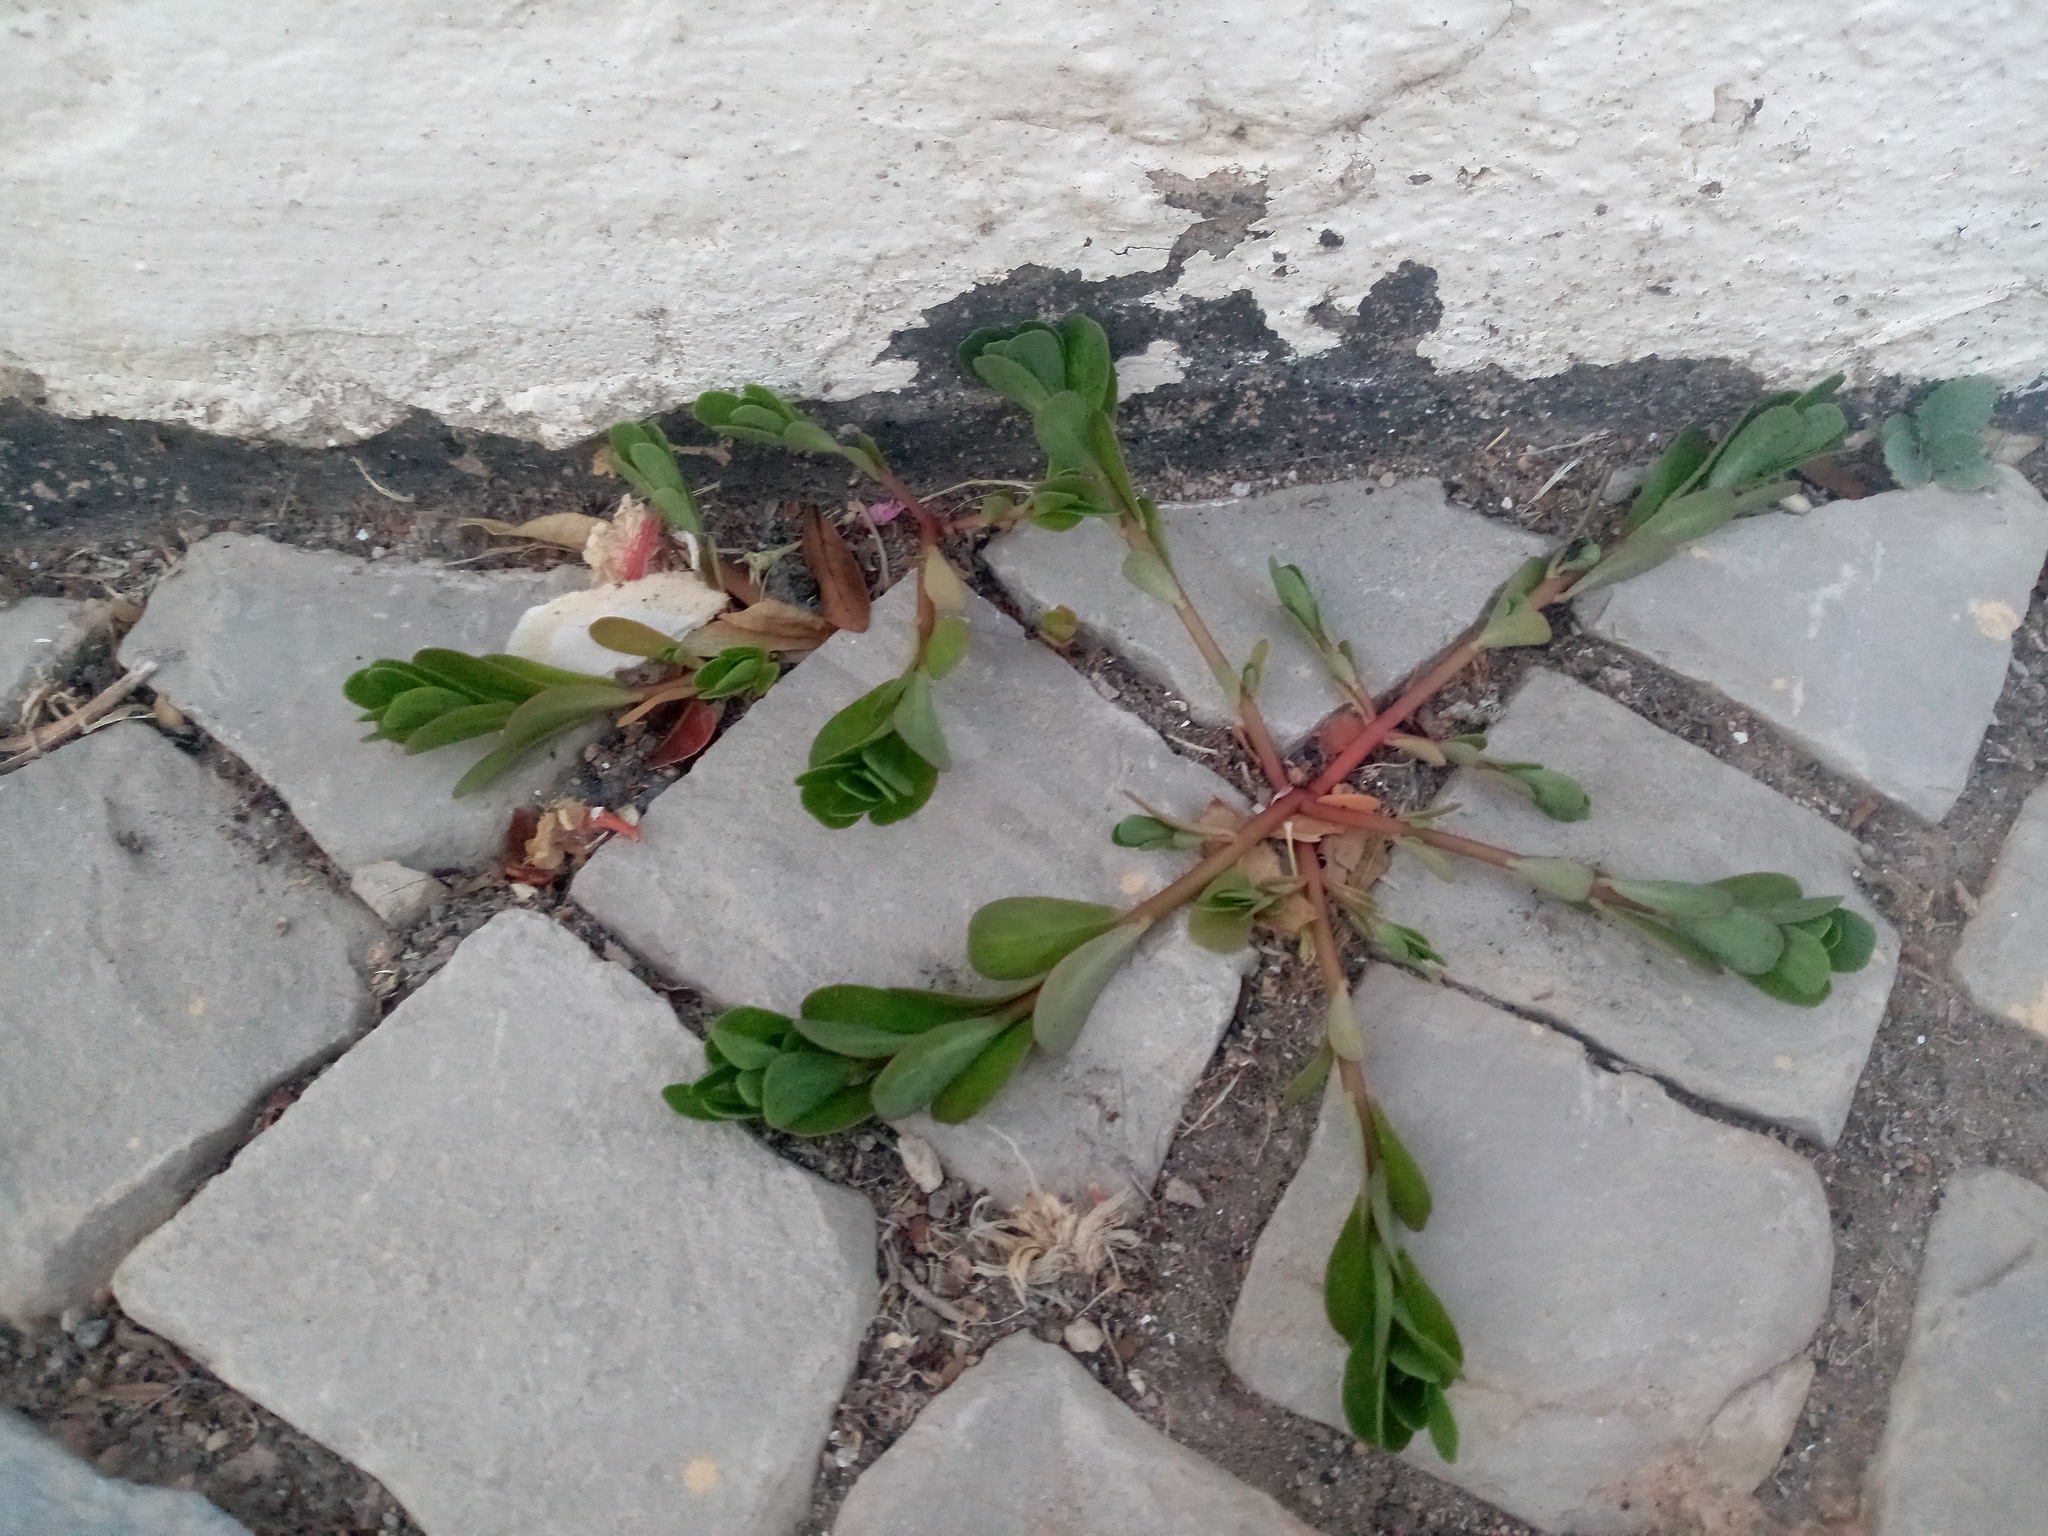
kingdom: Plantae
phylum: Tracheophyta
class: Magnoliopsida
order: Caryophyllales
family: Portulacaceae
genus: Portulaca
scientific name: Portulaca oleracea
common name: Common purslane
